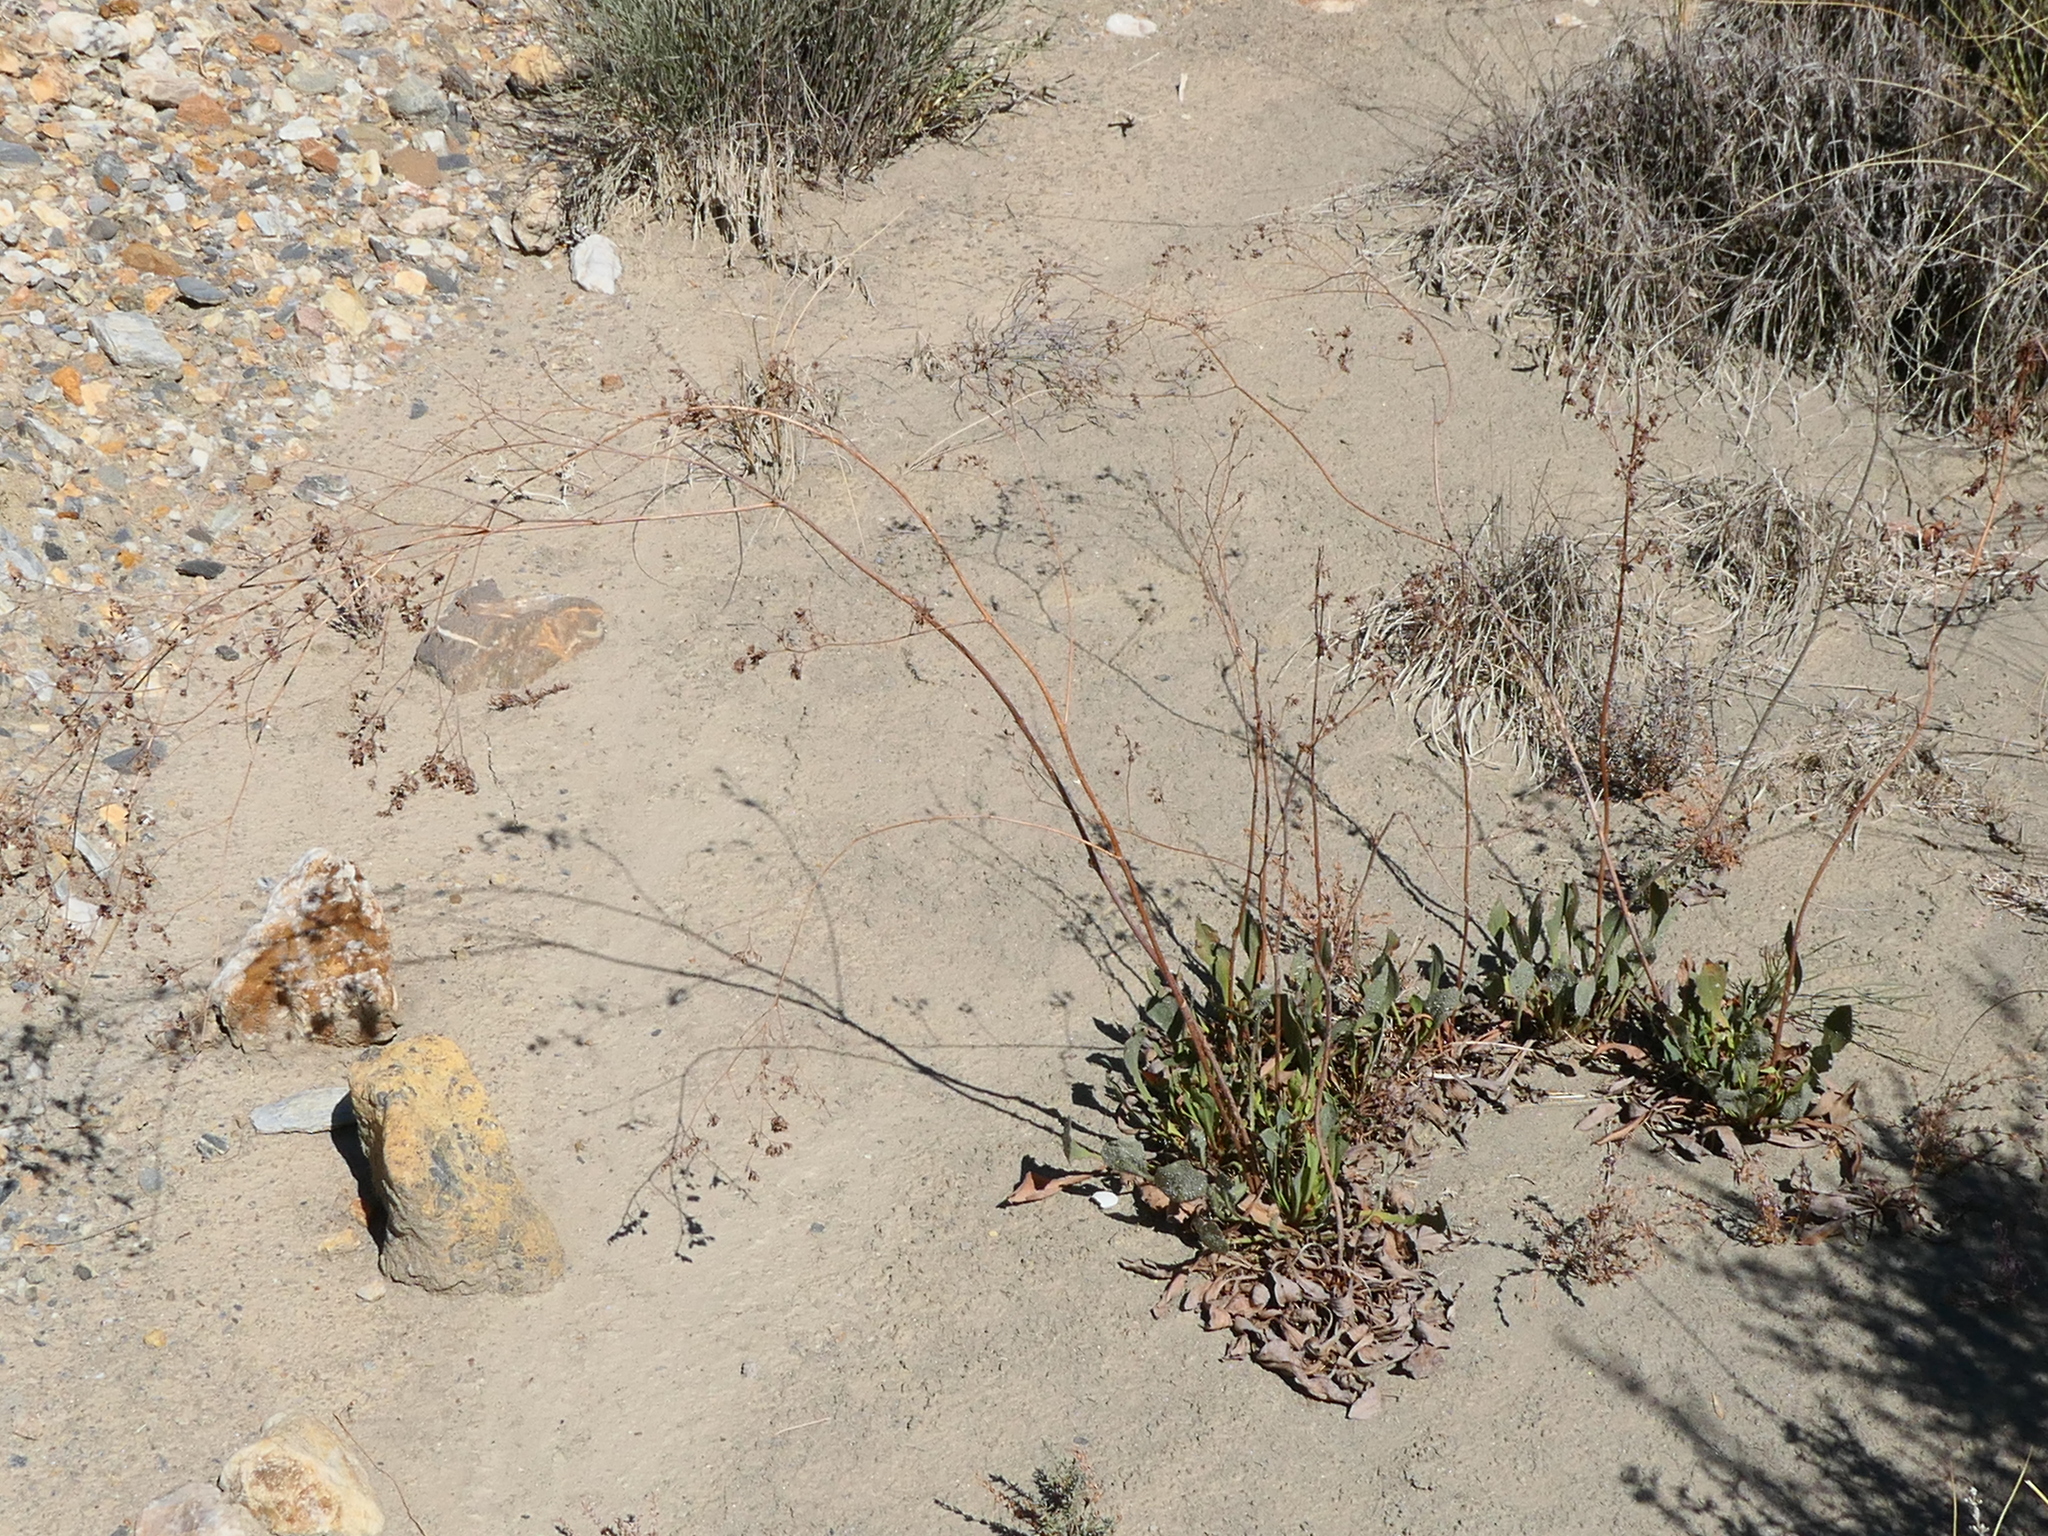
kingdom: Plantae
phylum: Tracheophyta
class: Magnoliopsida
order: Caryophyllales
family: Plumbaginaceae
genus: Limonium
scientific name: Limonium tabernense
